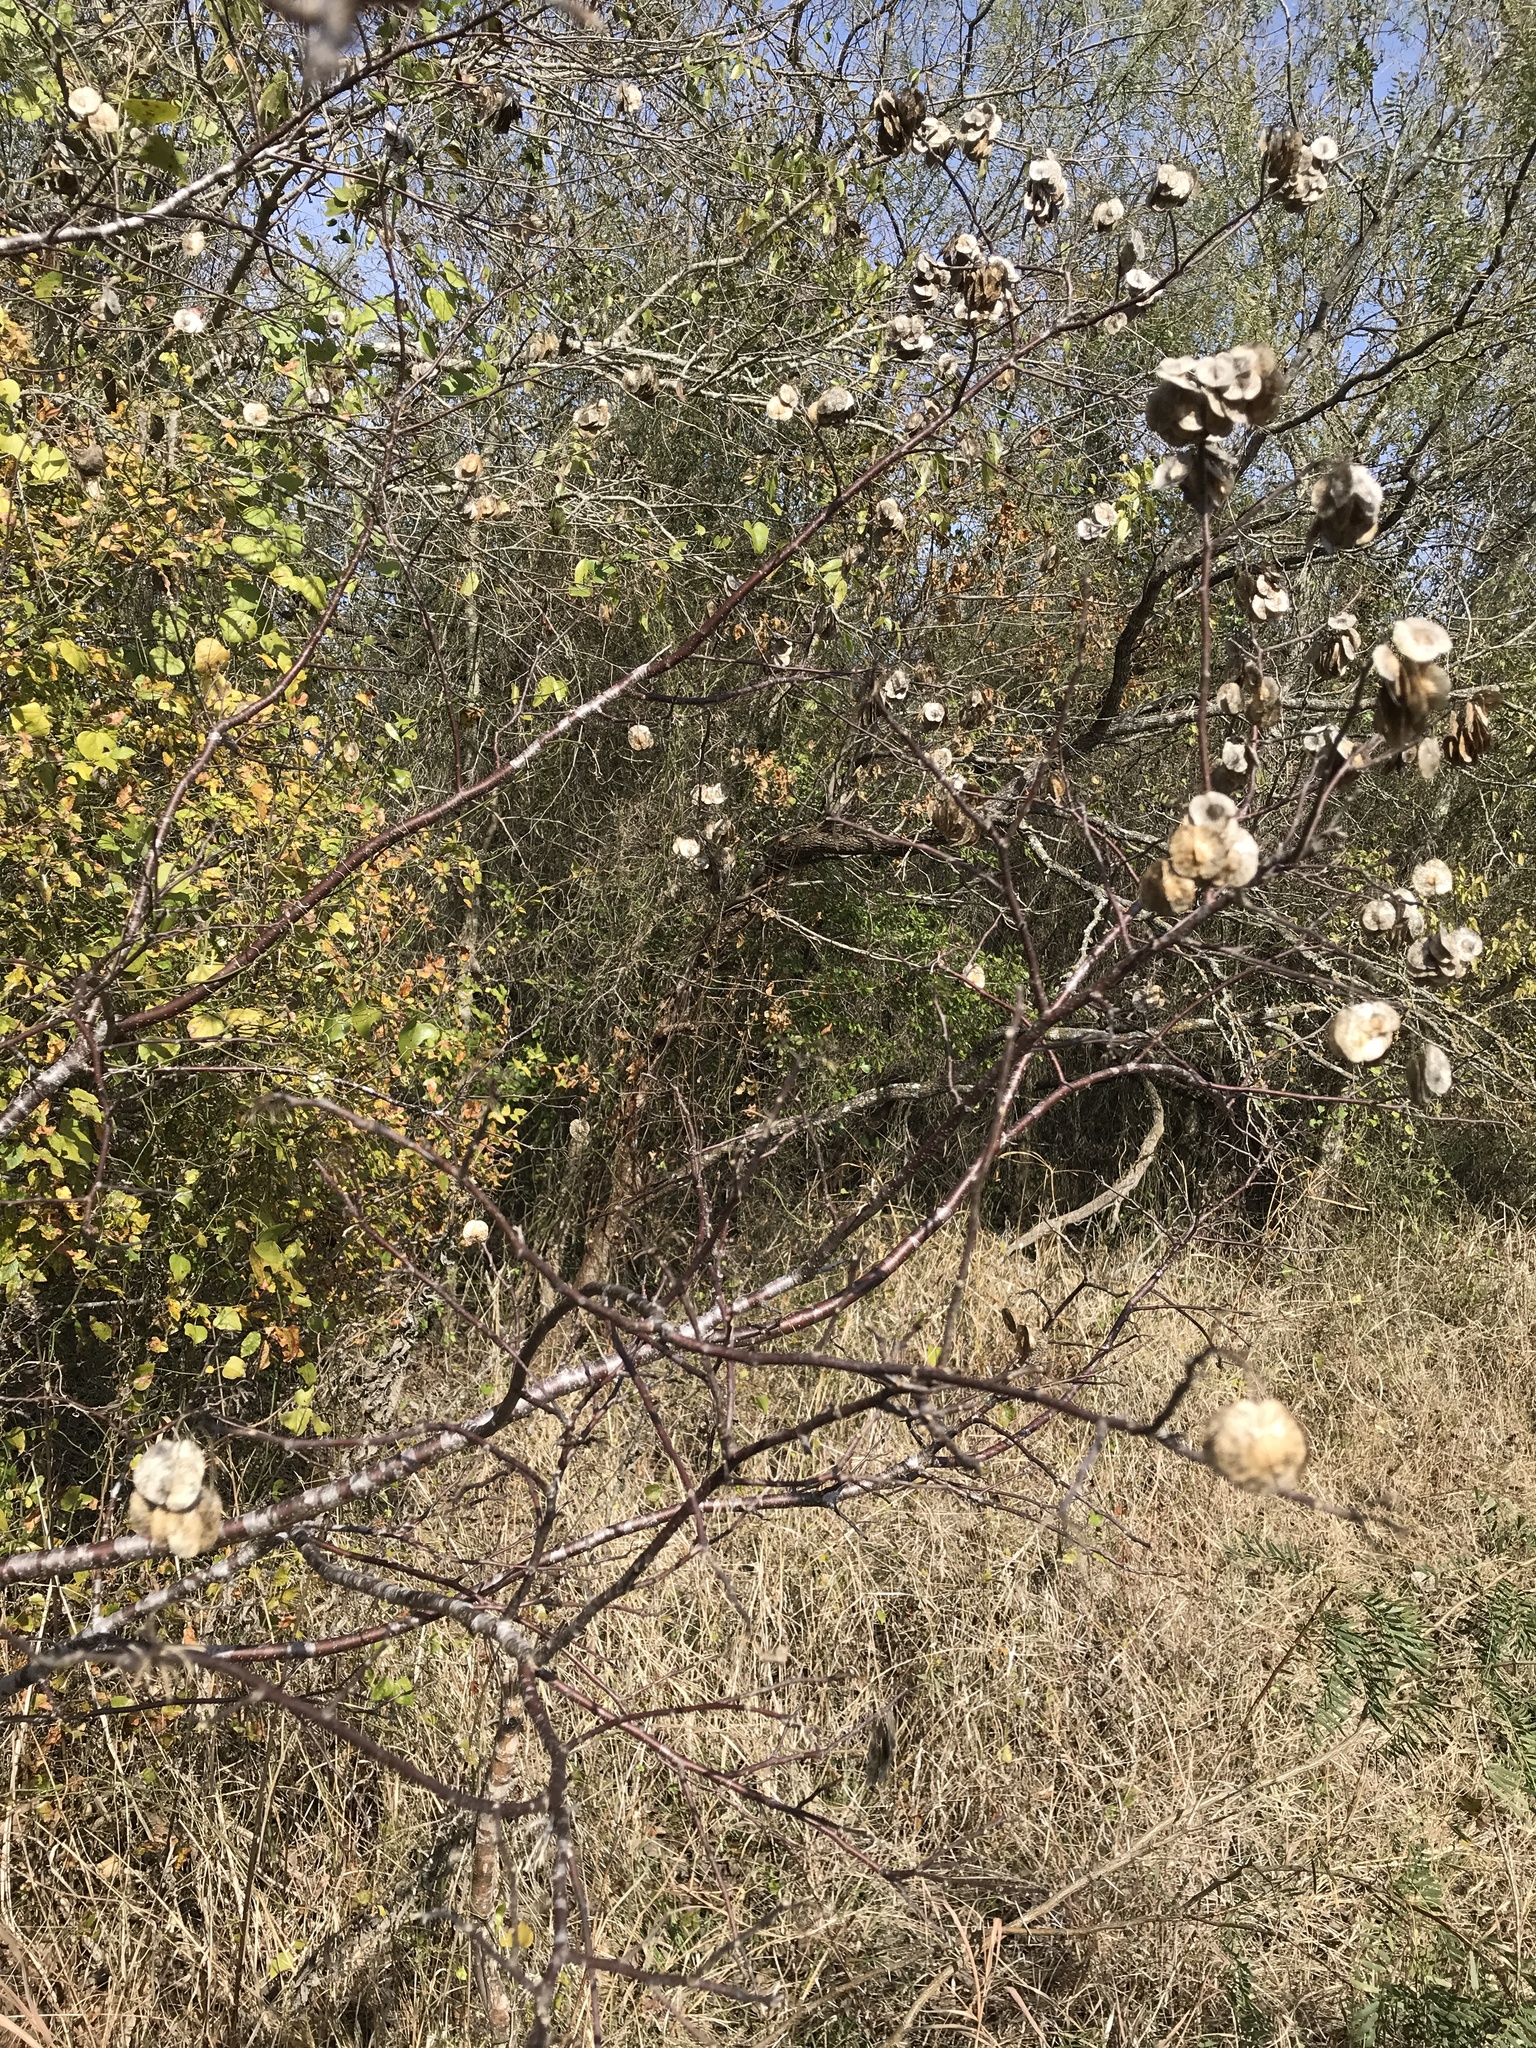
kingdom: Plantae
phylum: Tracheophyta
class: Magnoliopsida
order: Sapindales
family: Rutaceae
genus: Ptelea
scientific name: Ptelea trifoliata
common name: Common hop-tree
